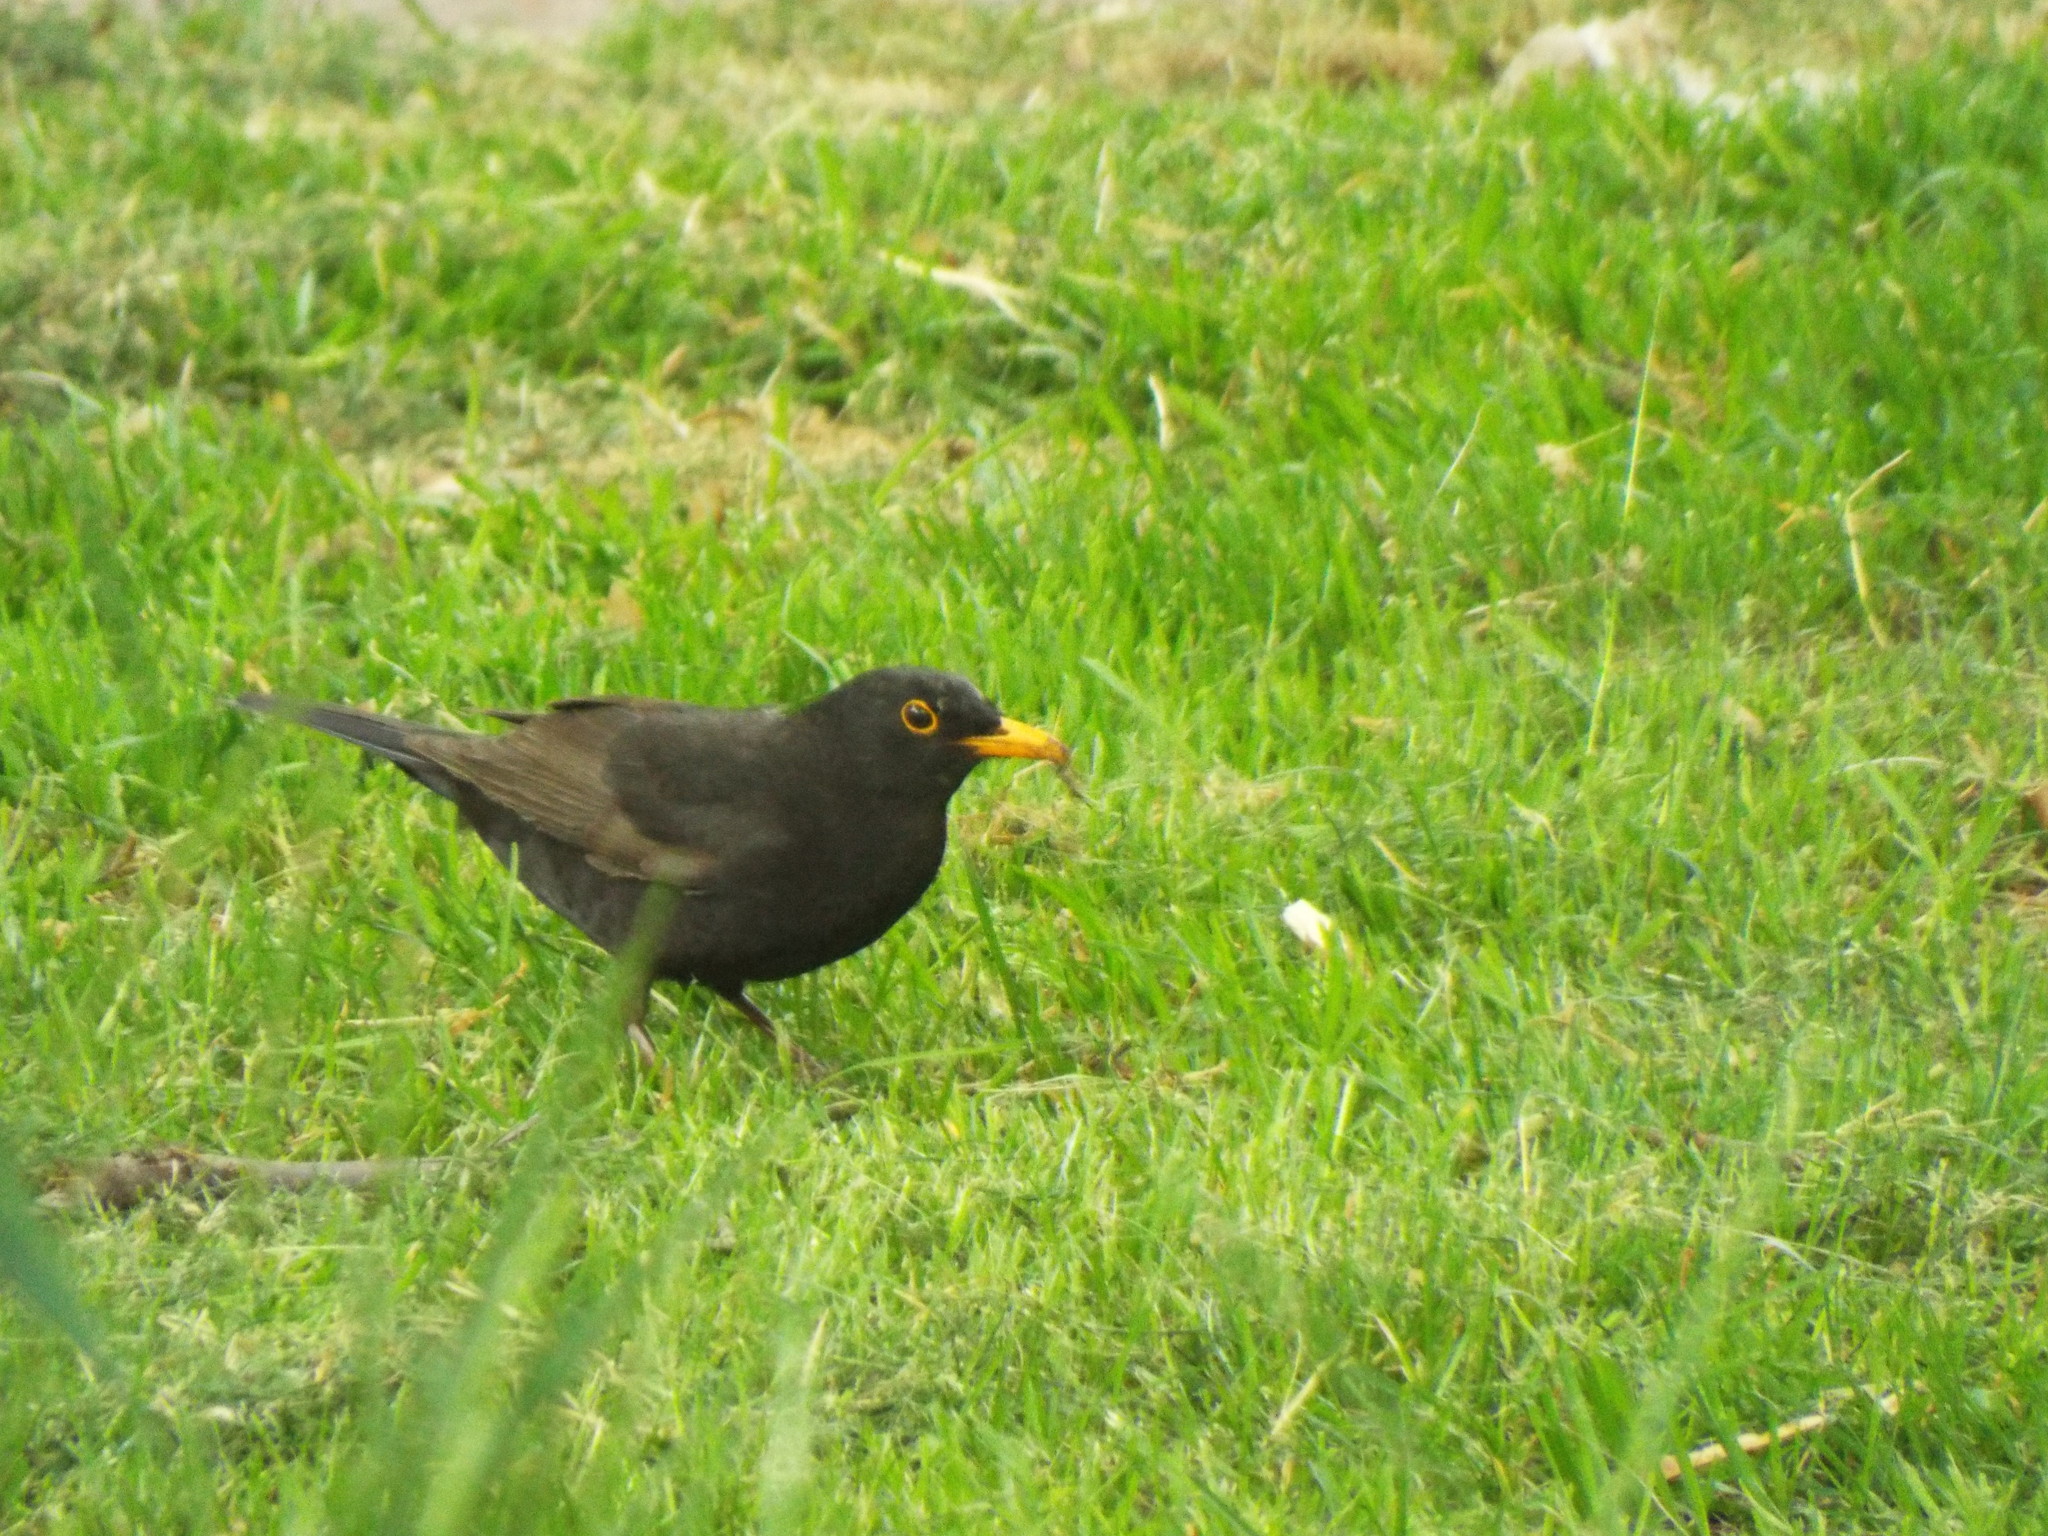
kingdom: Animalia
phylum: Chordata
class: Aves
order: Passeriformes
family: Turdidae
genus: Turdus
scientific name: Turdus merula
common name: Common blackbird
